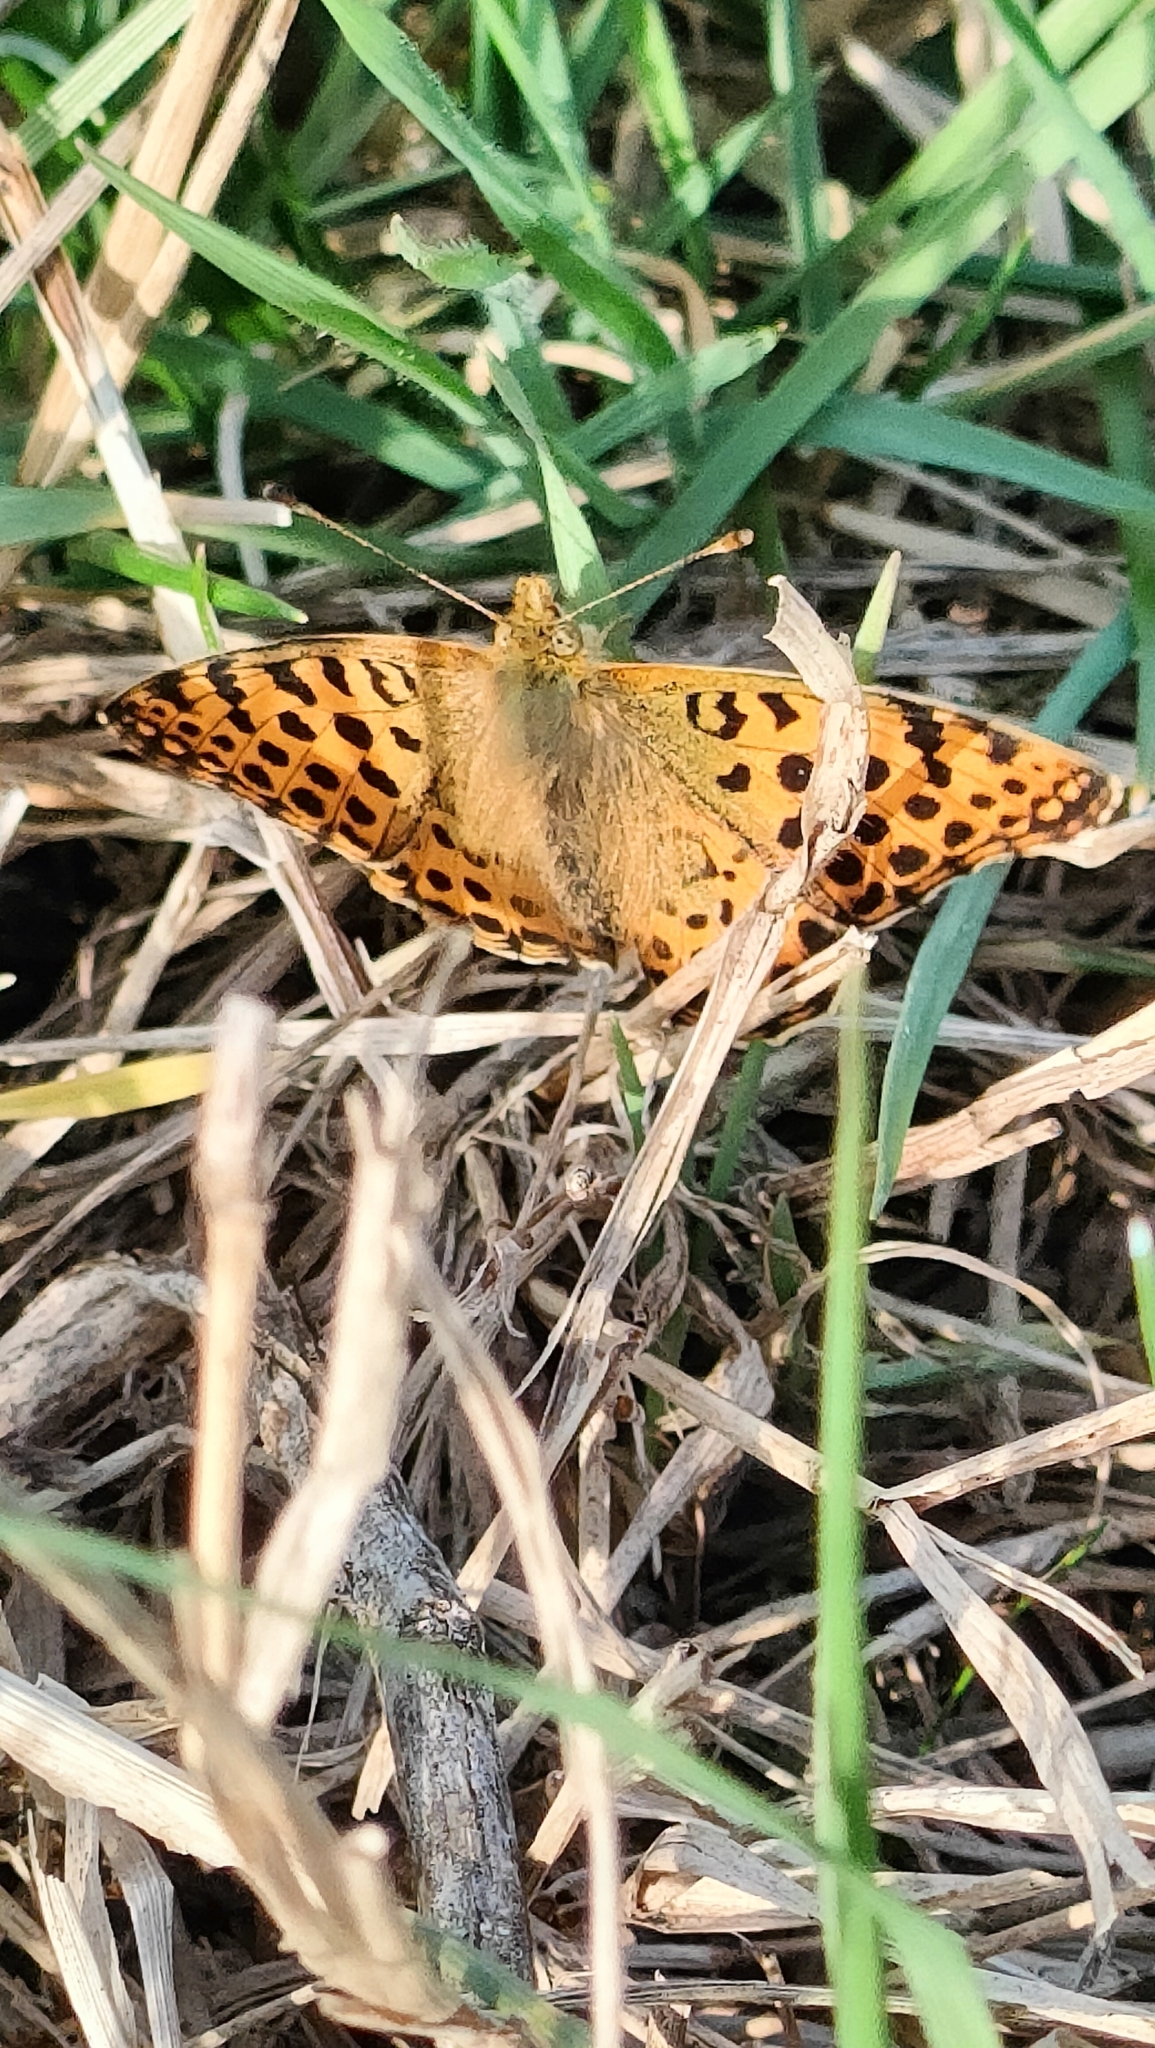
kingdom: Animalia
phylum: Arthropoda
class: Insecta
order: Lepidoptera
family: Nymphalidae
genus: Issoria
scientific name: Issoria lathonia
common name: Queen of spain fritillary
